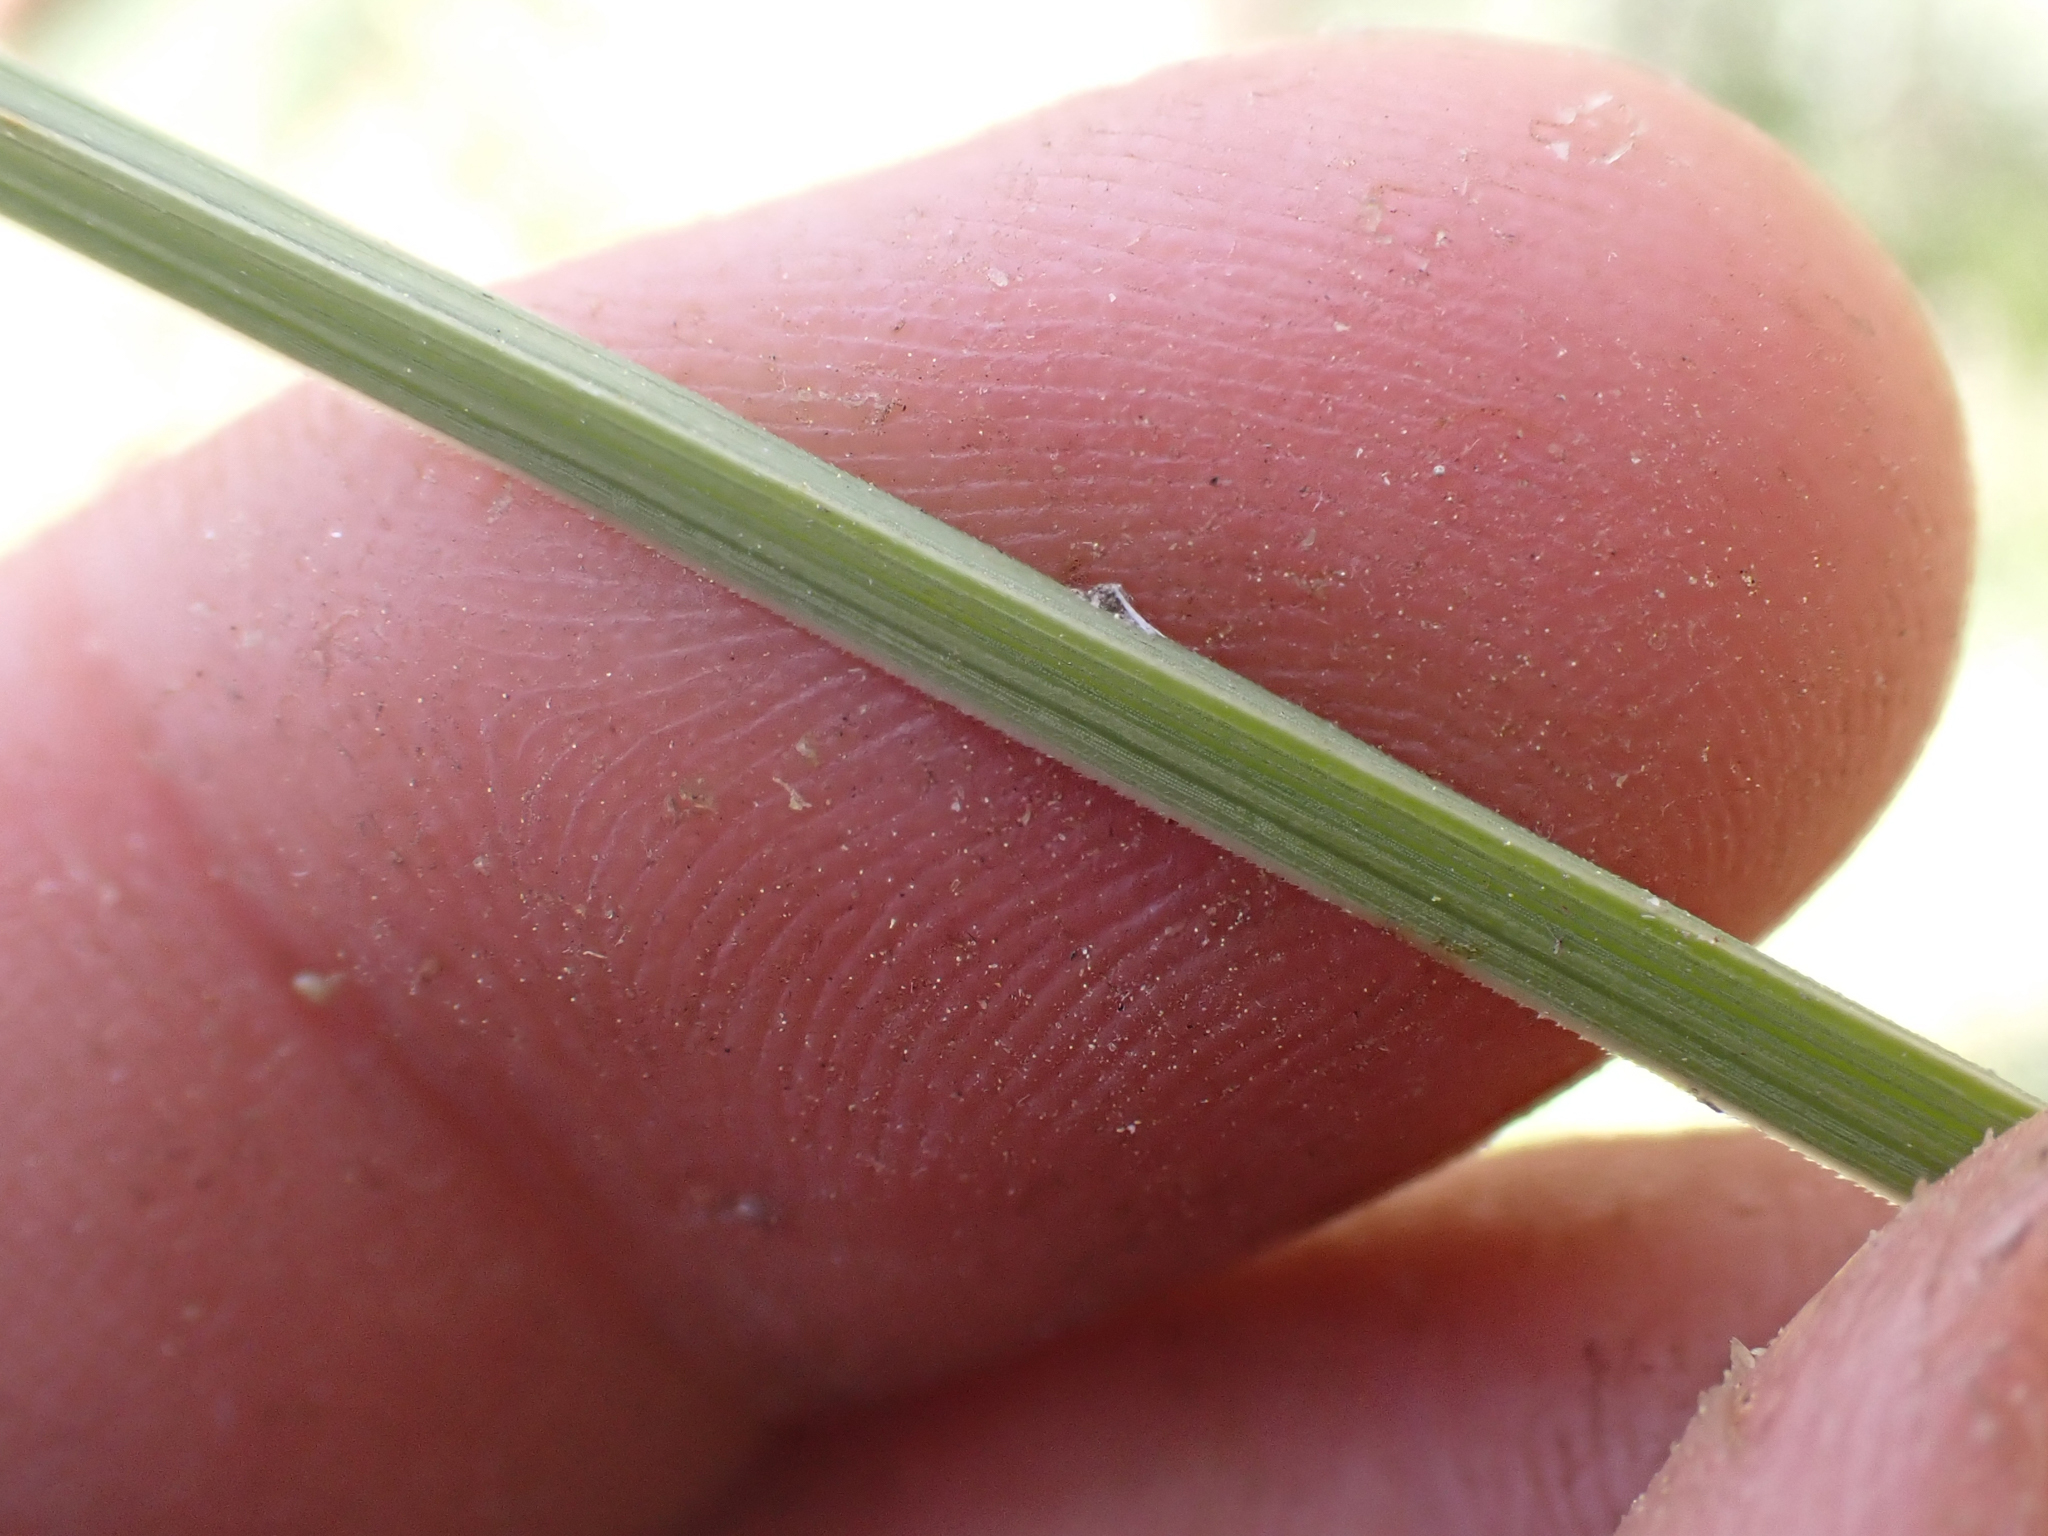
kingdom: Plantae
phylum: Tracheophyta
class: Liliopsida
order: Poales
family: Cyperaceae
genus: Carex
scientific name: Carex nebrascensis
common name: Nebraska sedge
